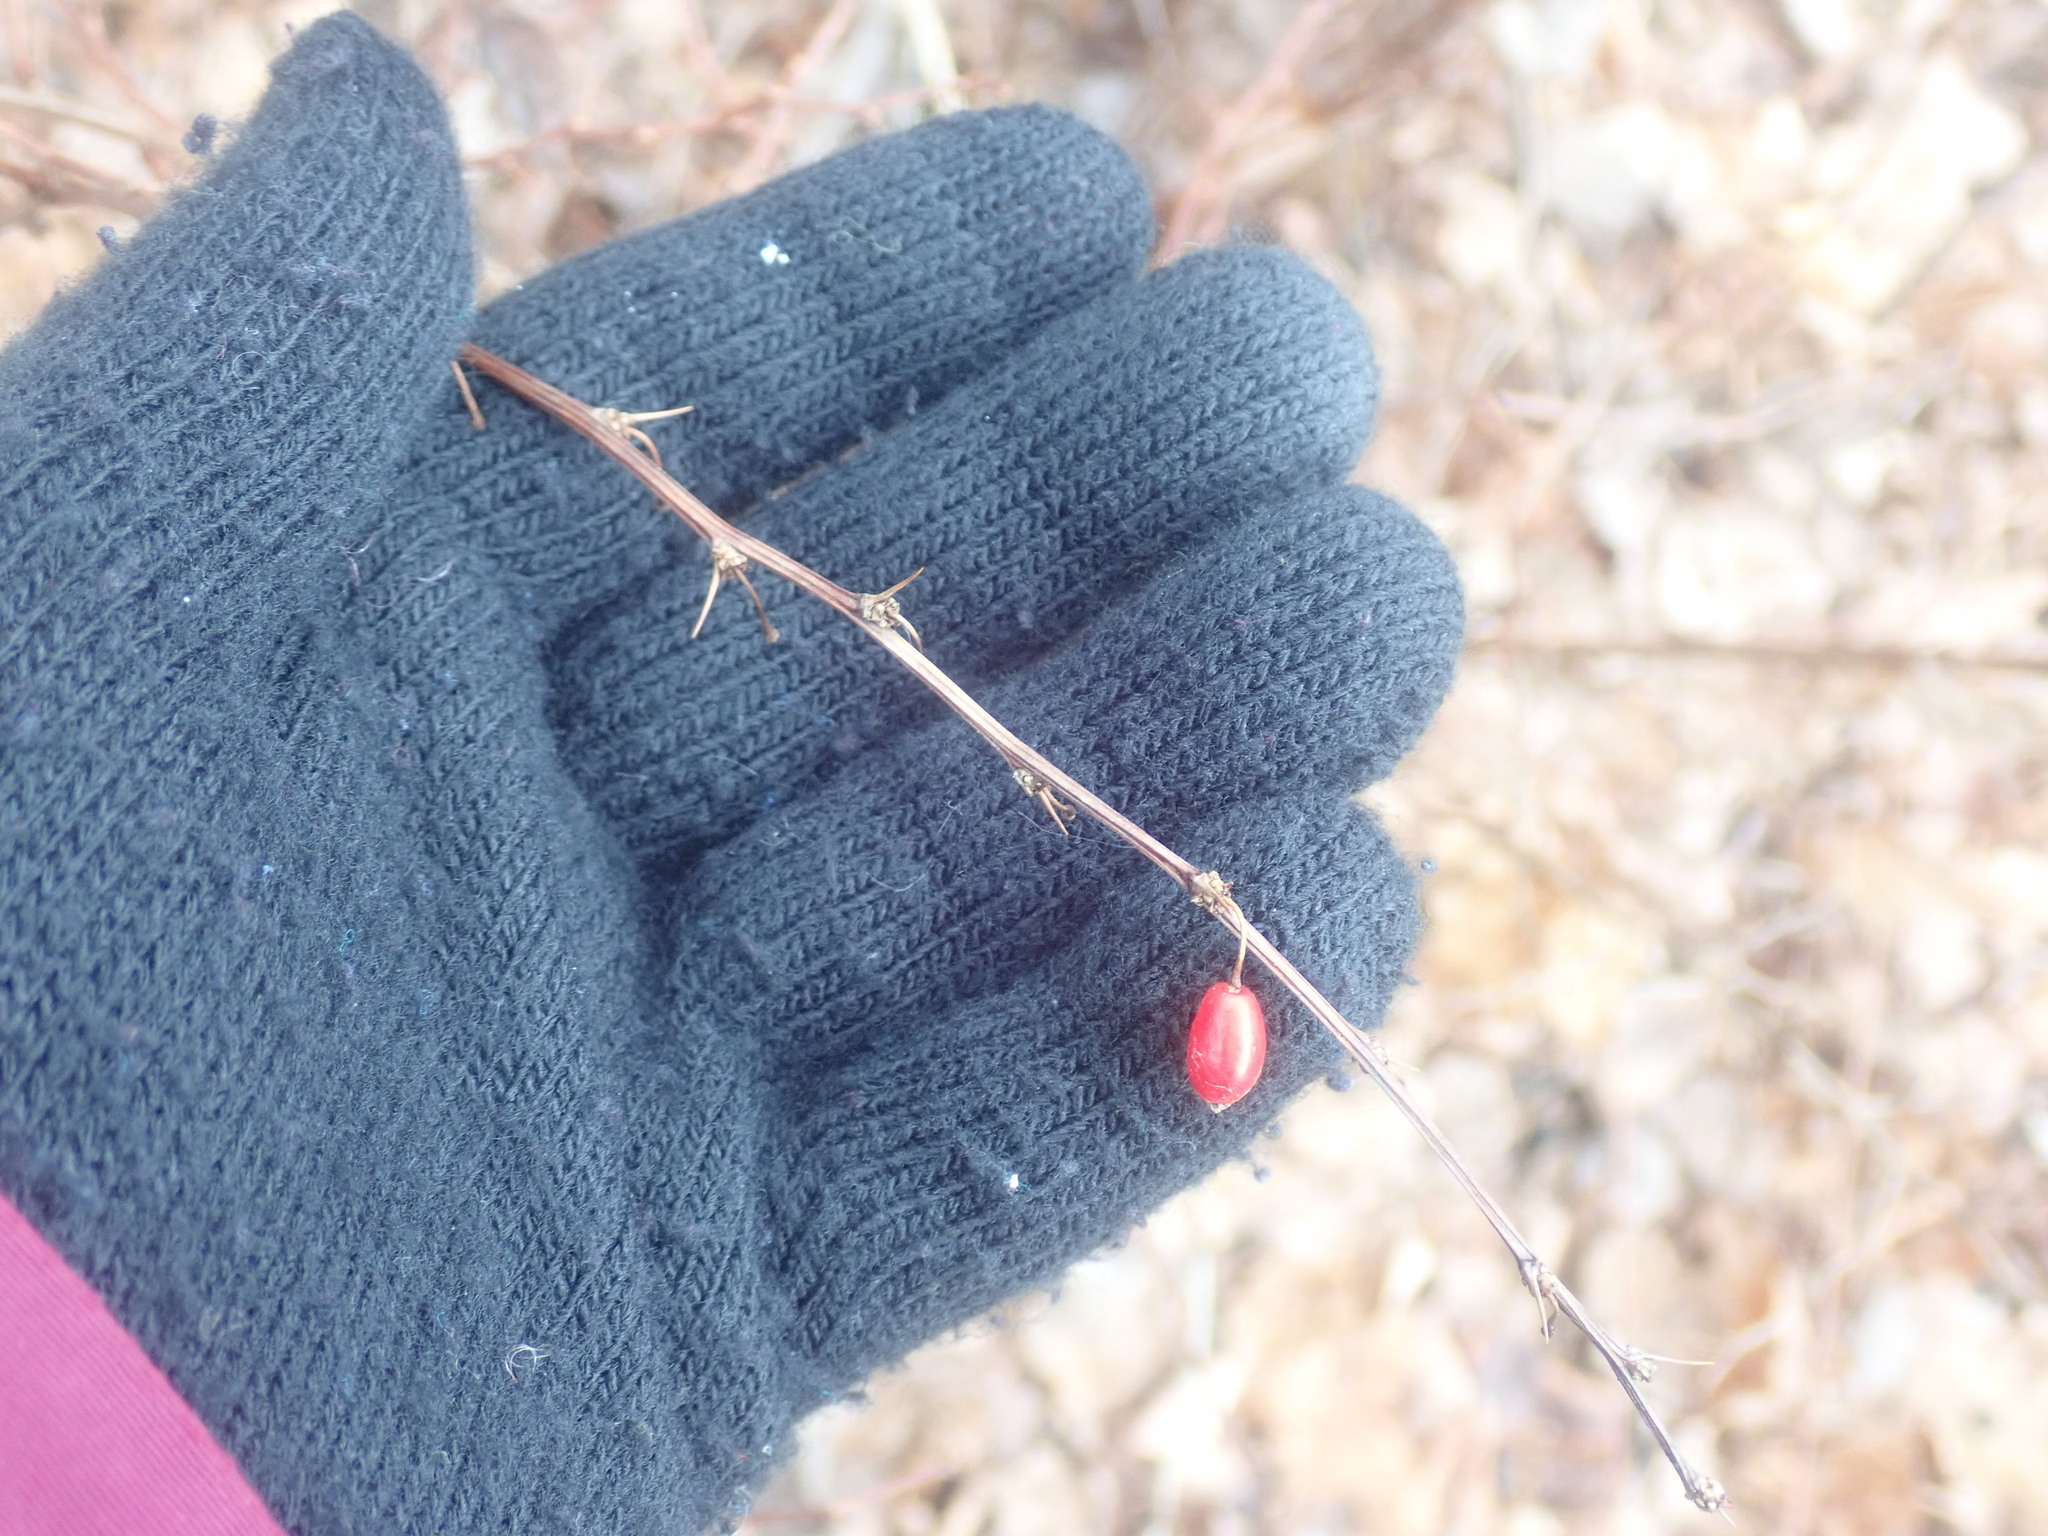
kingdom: Plantae
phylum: Tracheophyta
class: Magnoliopsida
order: Ranunculales
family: Berberidaceae
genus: Berberis
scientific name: Berberis thunbergii
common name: Japanese barberry
